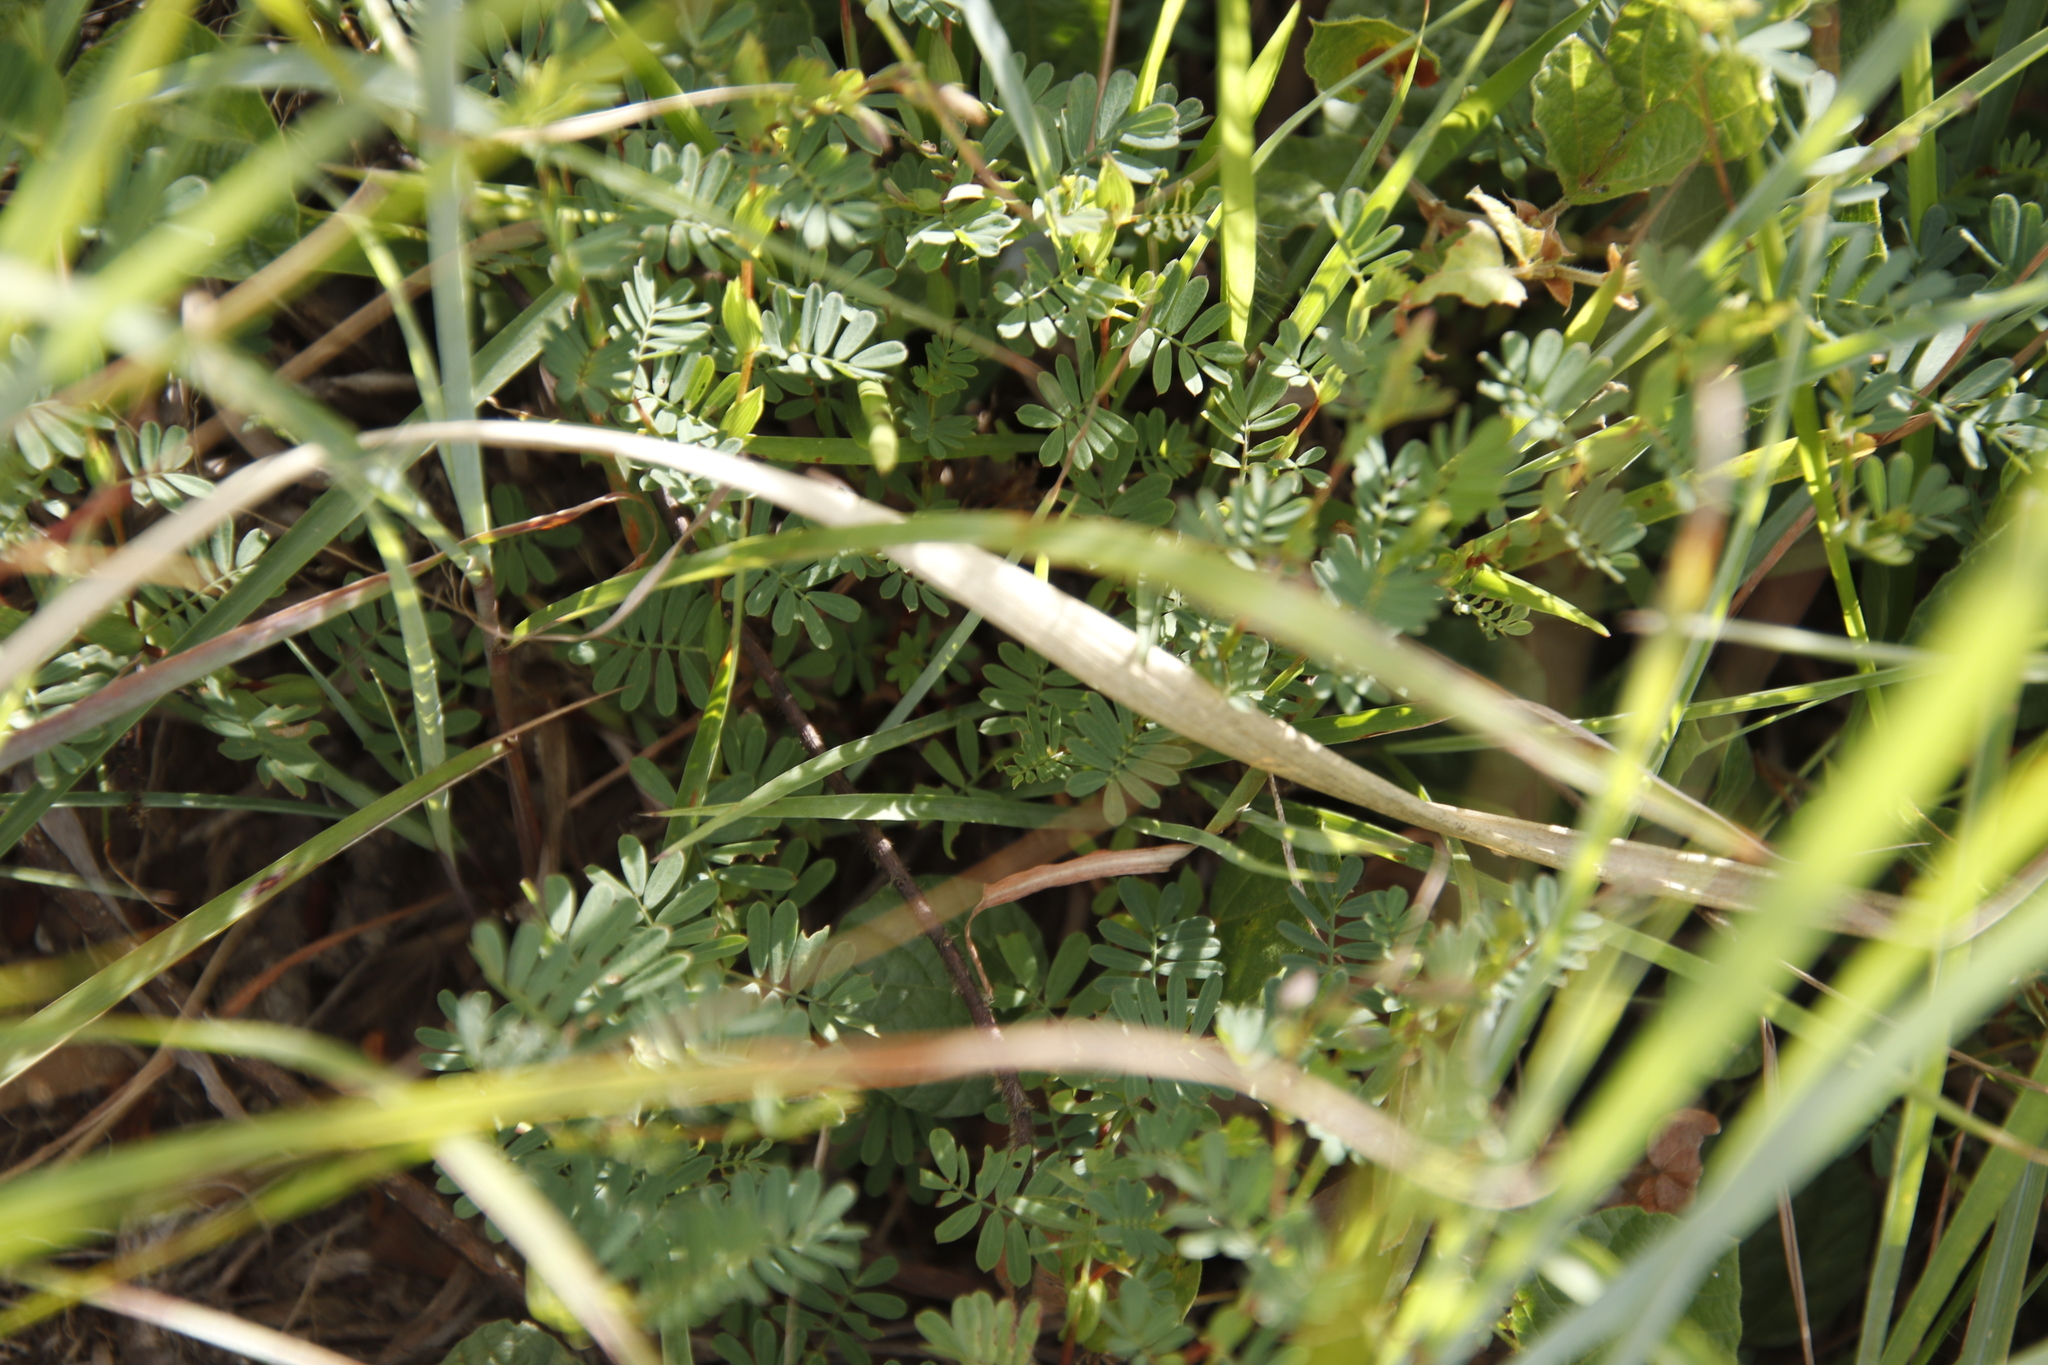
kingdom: Plantae
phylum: Tracheophyta
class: Magnoliopsida
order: Fabales
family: Fabaceae
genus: Aeschynomene
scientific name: Aeschynomene rhodesiaca
